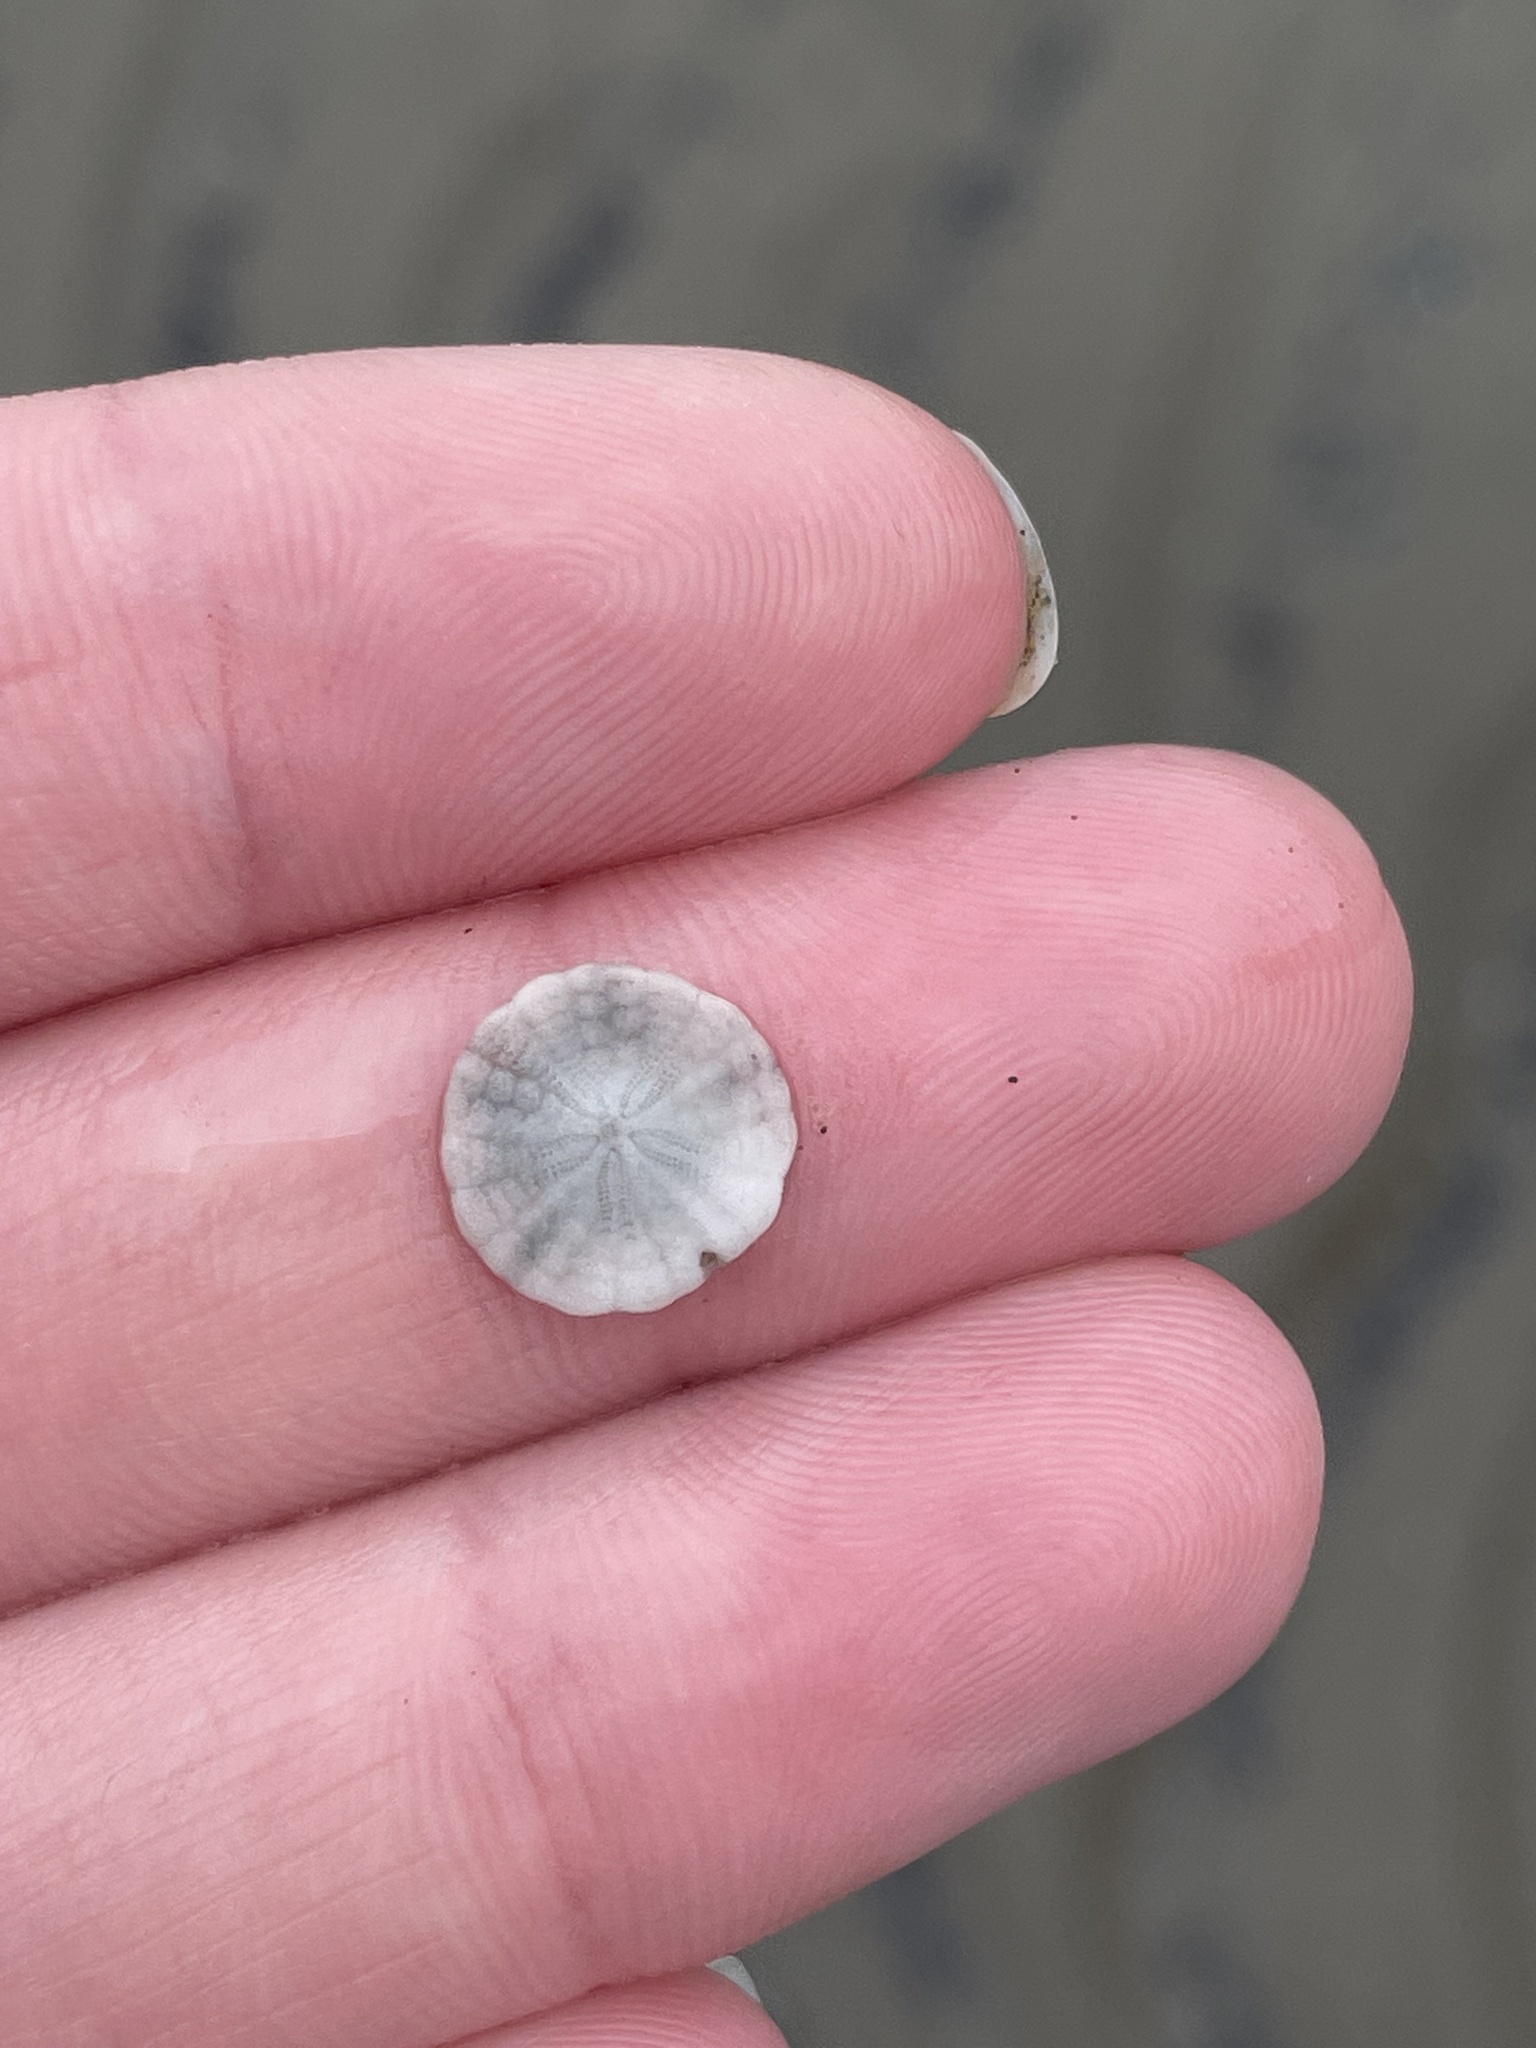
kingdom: Animalia
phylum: Echinodermata
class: Echinoidea
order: Echinolampadacea
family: Echinarachniidae
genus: Echinarachnius
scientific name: Echinarachnius parma
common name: Common sand dollar
